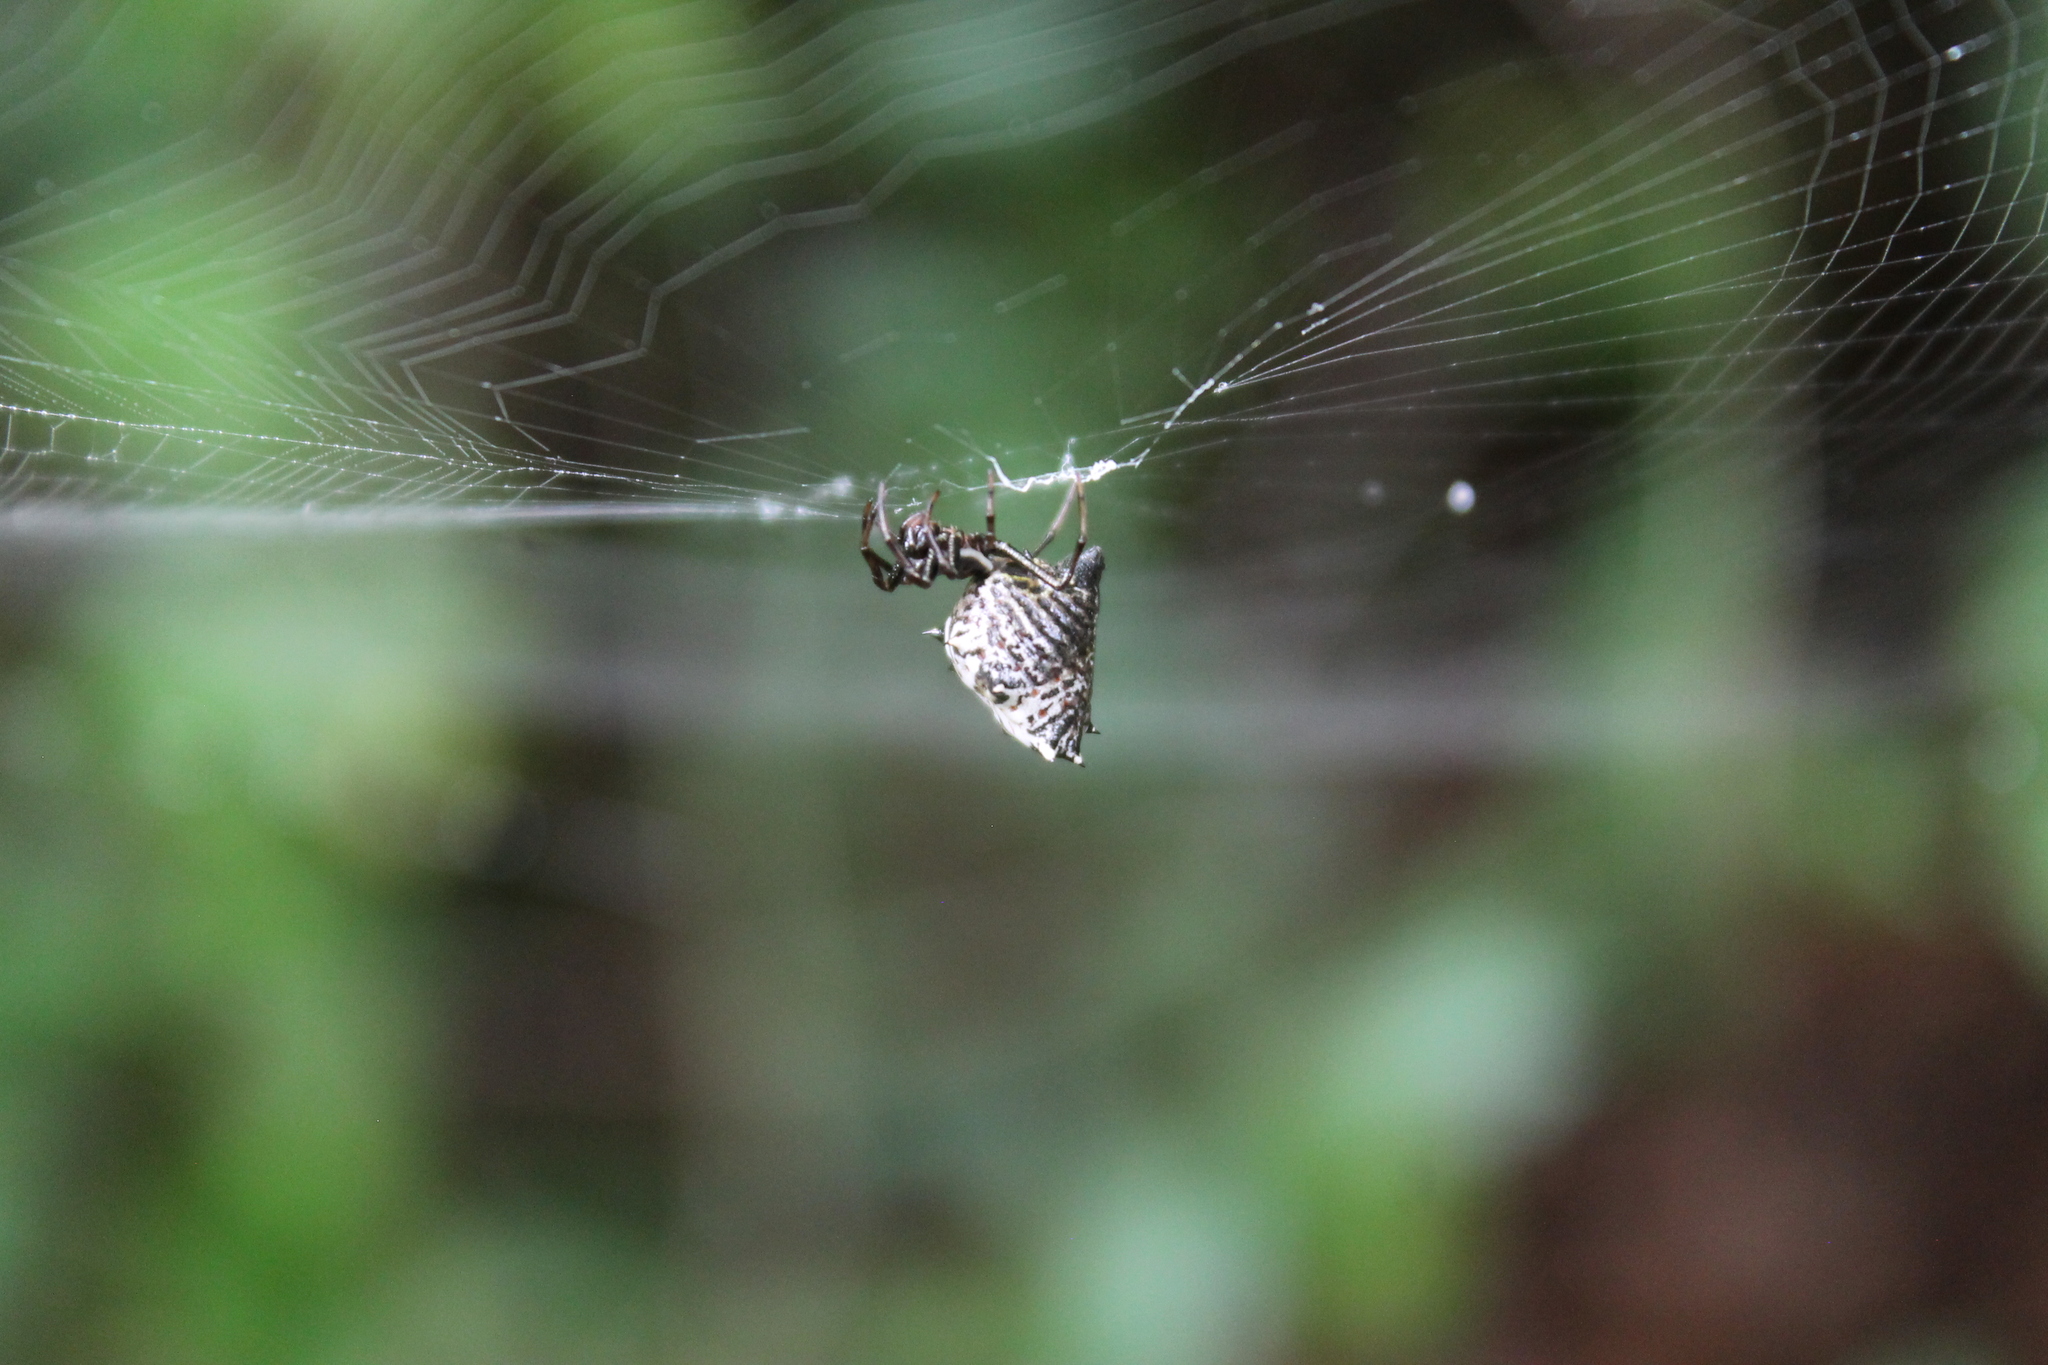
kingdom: Animalia
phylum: Arthropoda
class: Arachnida
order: Araneae
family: Araneidae
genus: Micrathena
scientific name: Micrathena gracilis
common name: Orb weavers
